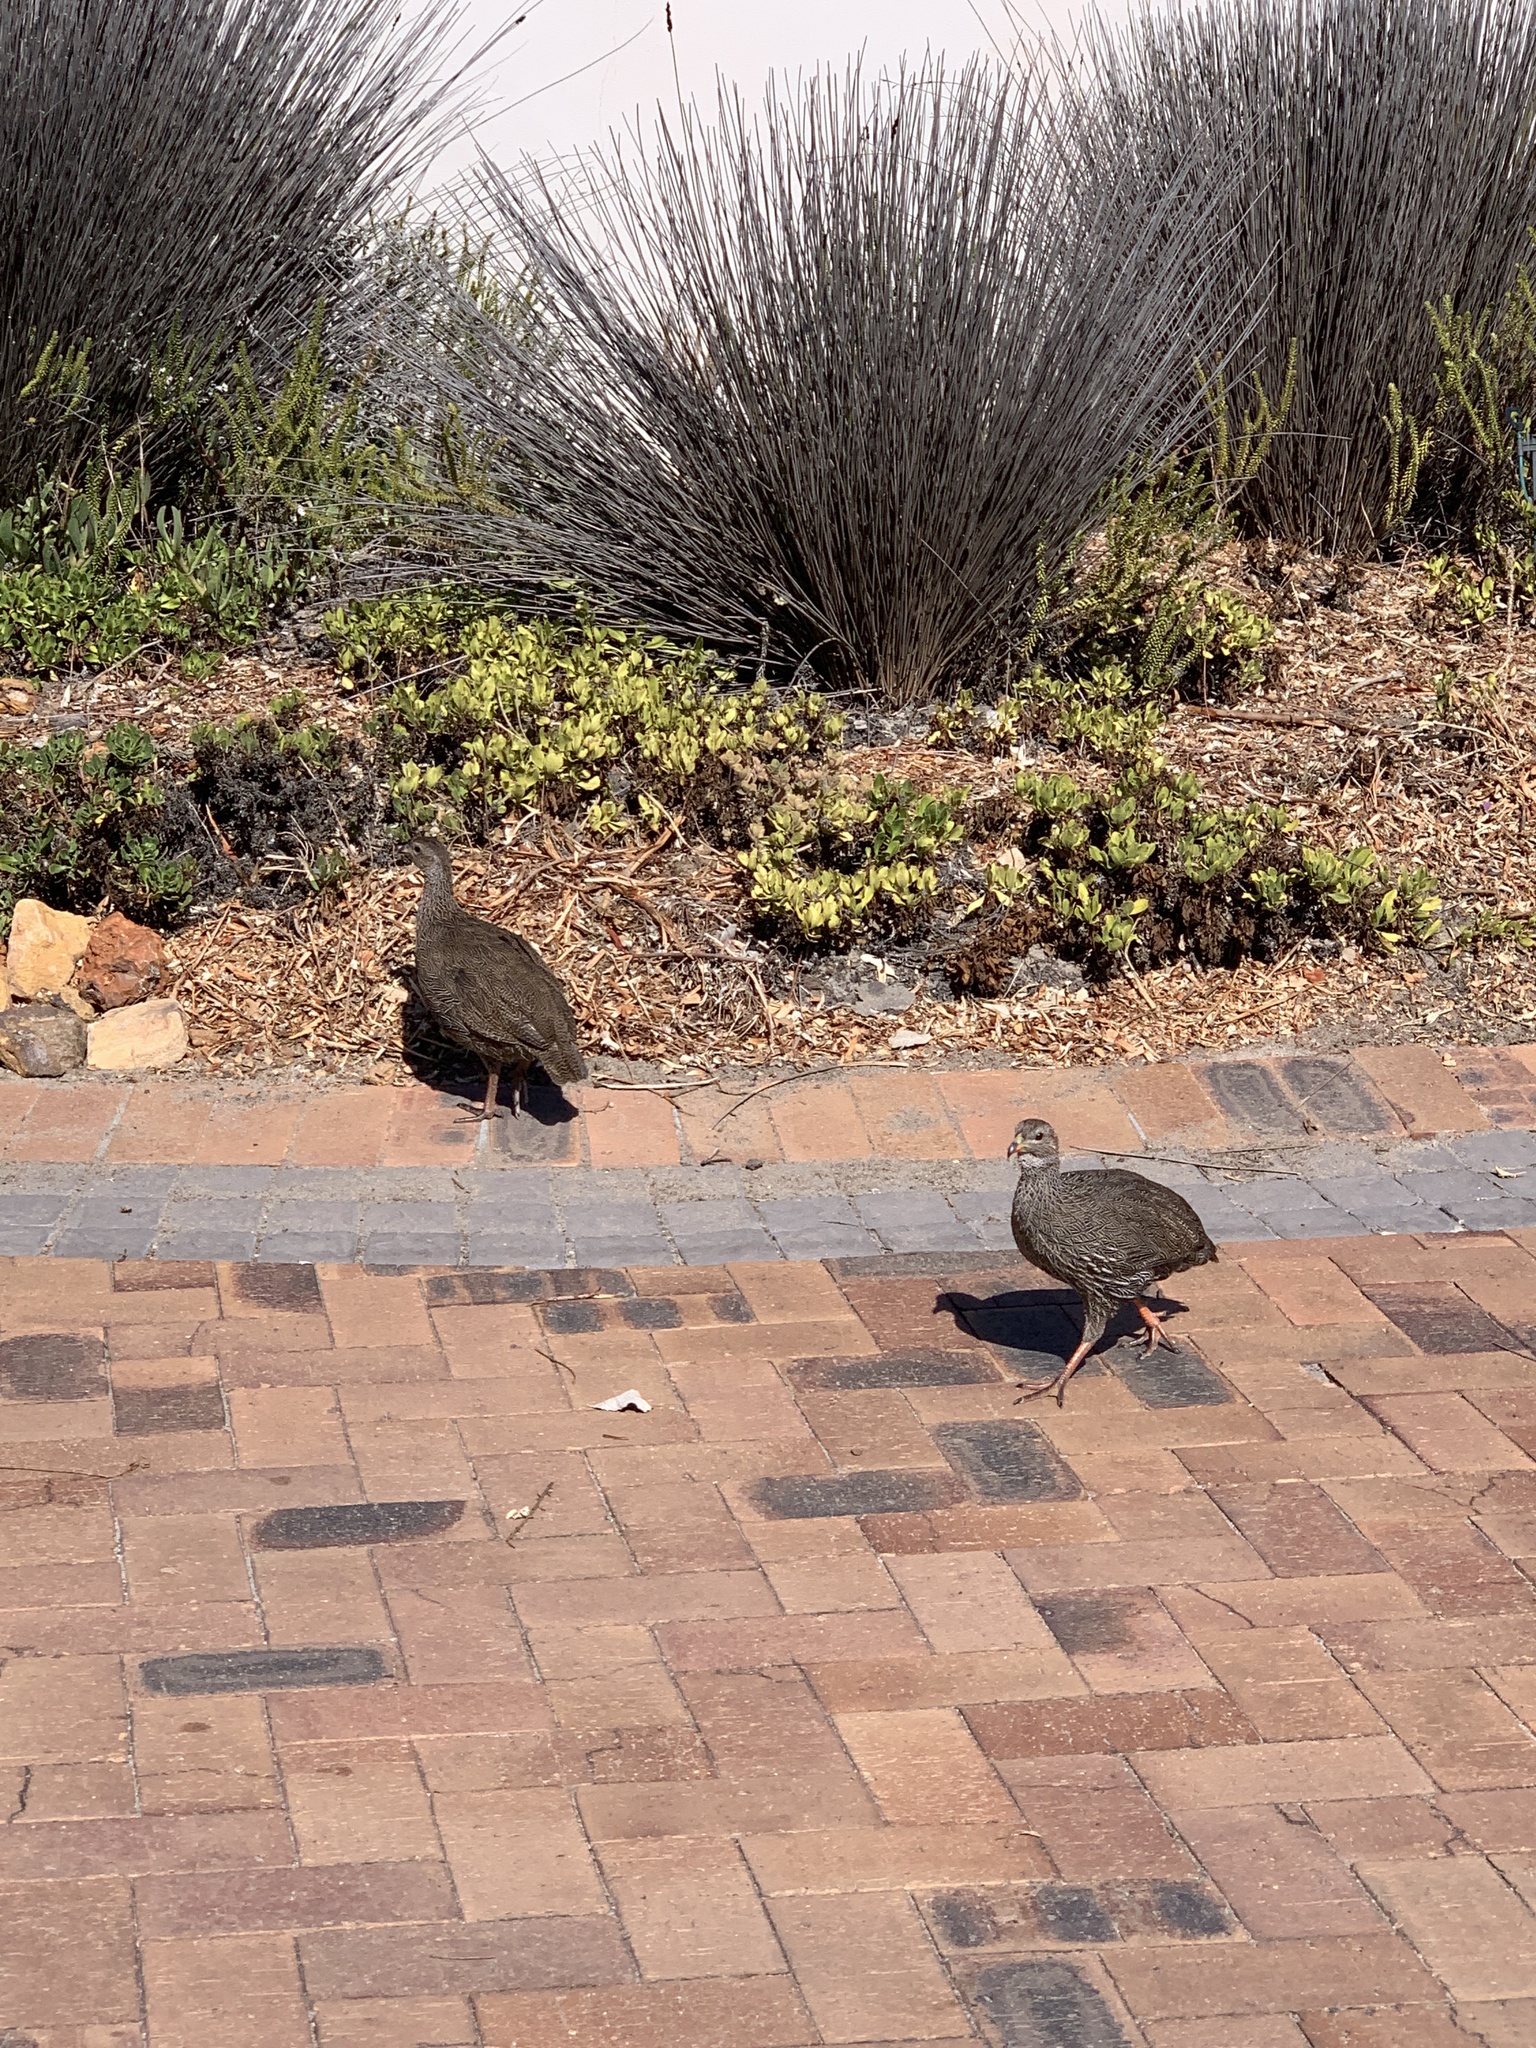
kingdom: Animalia
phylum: Chordata
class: Aves
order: Galliformes
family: Phasianidae
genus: Pternistis
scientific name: Pternistis capensis
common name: Cape spurfowl
